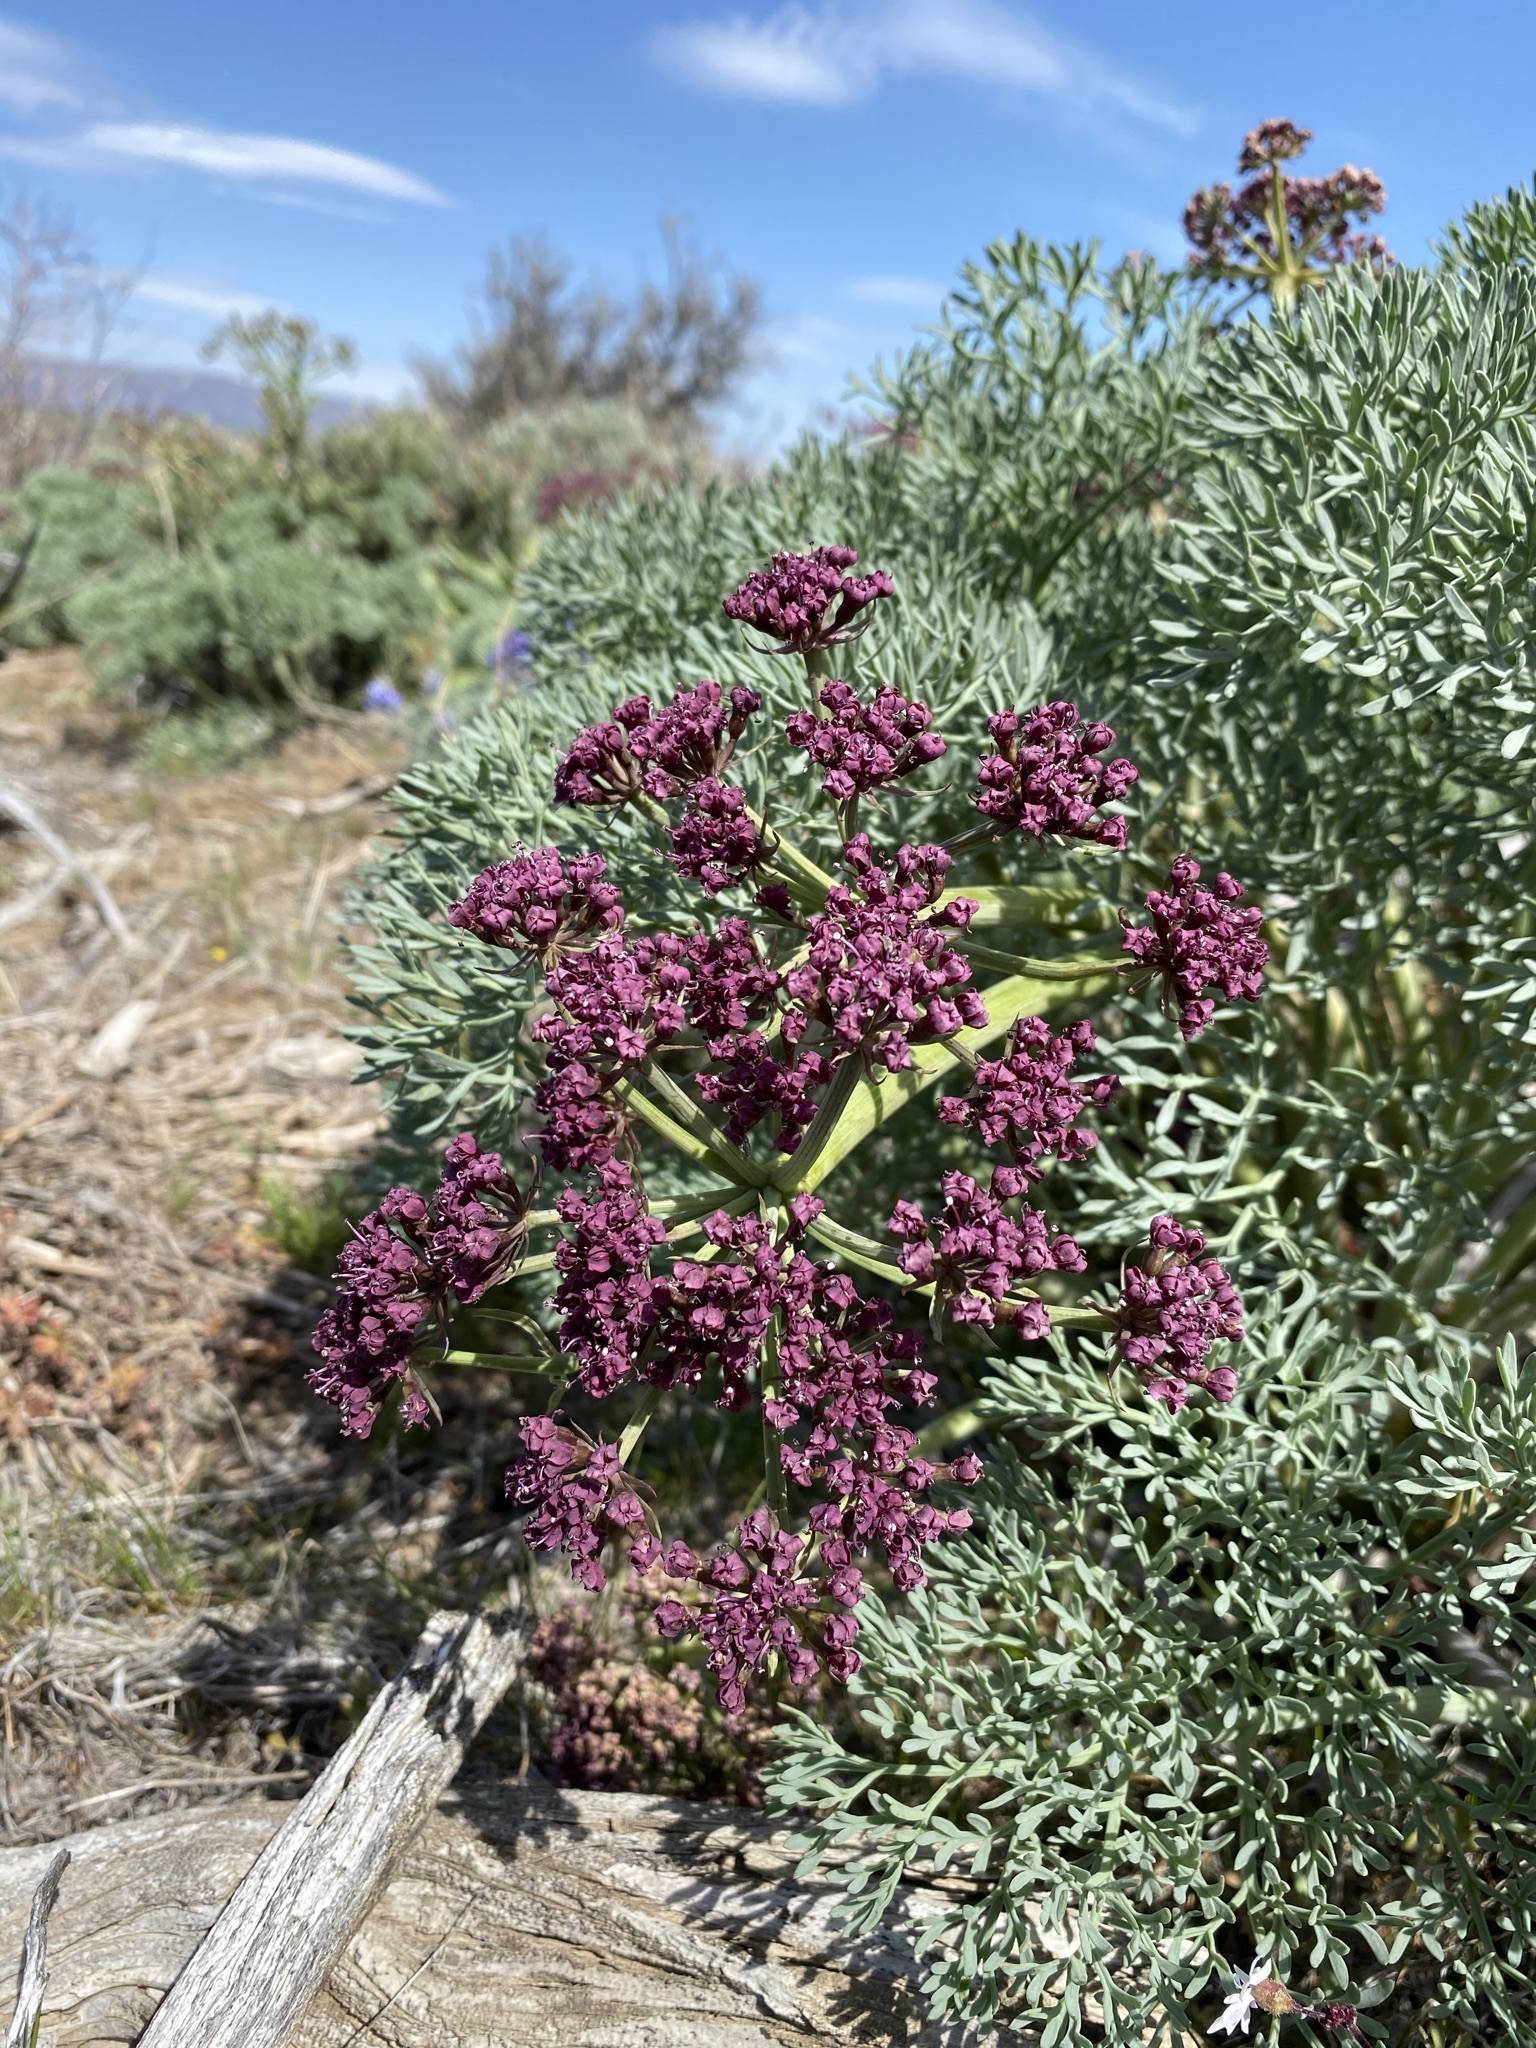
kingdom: Plantae
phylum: Tracheophyta
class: Magnoliopsida
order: Apiales
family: Apiaceae
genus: Lomatium
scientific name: Lomatium columbianum
